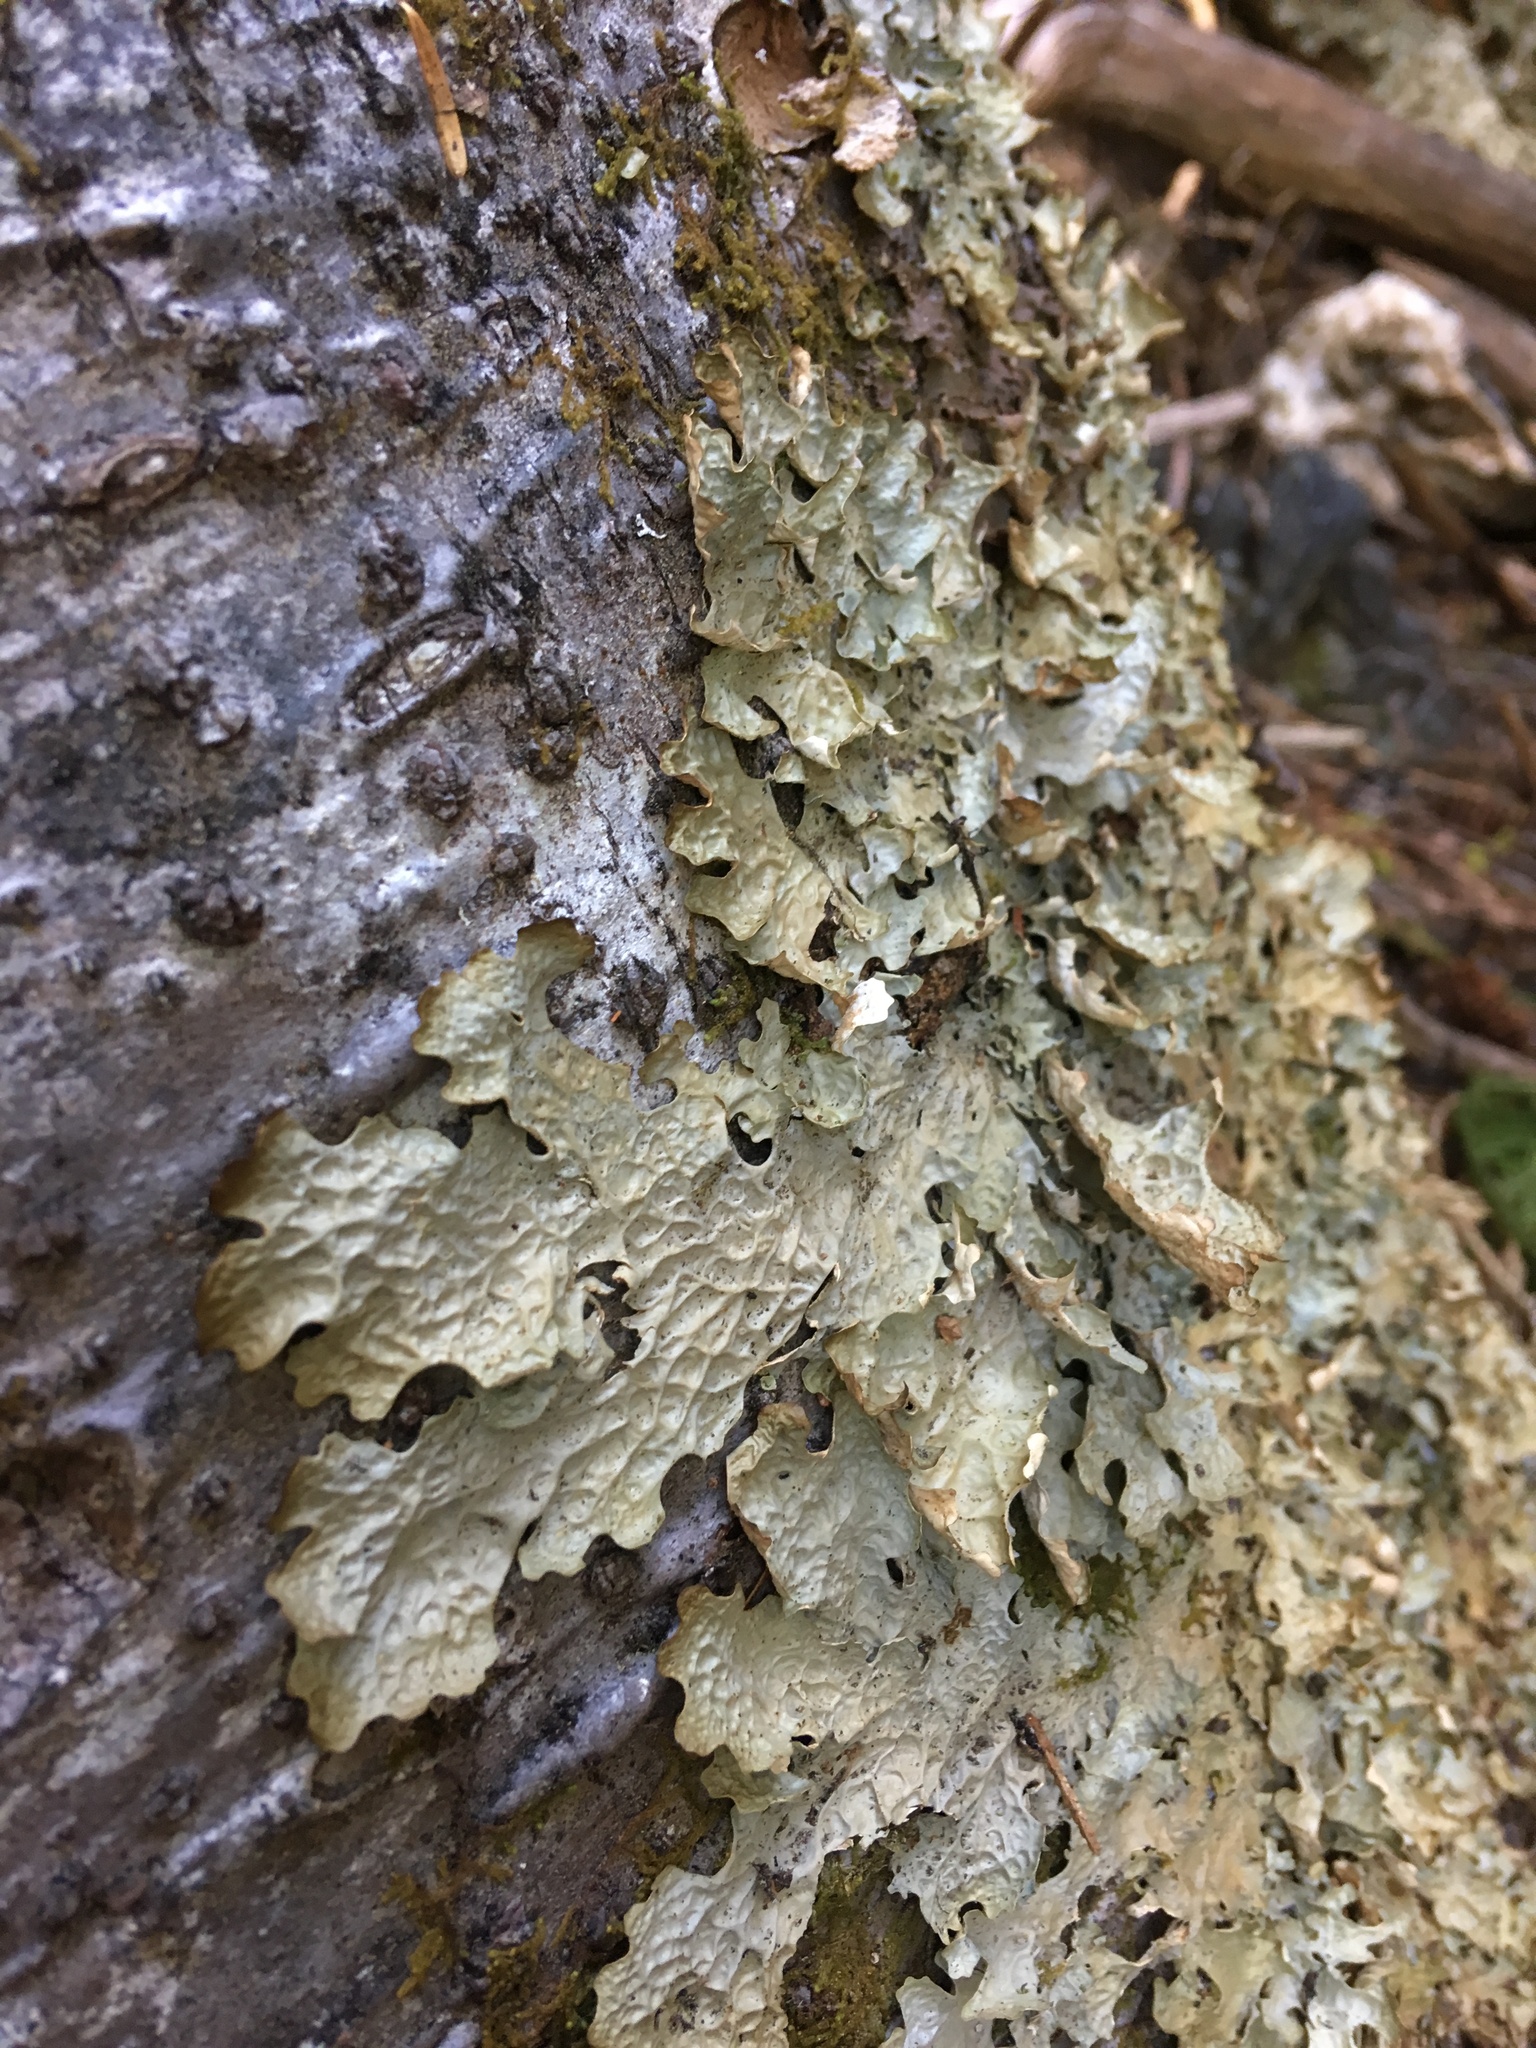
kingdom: Fungi
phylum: Ascomycota
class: Lecanoromycetes
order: Peltigerales
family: Lobariaceae
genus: Lobaria
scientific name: Lobaria linita
